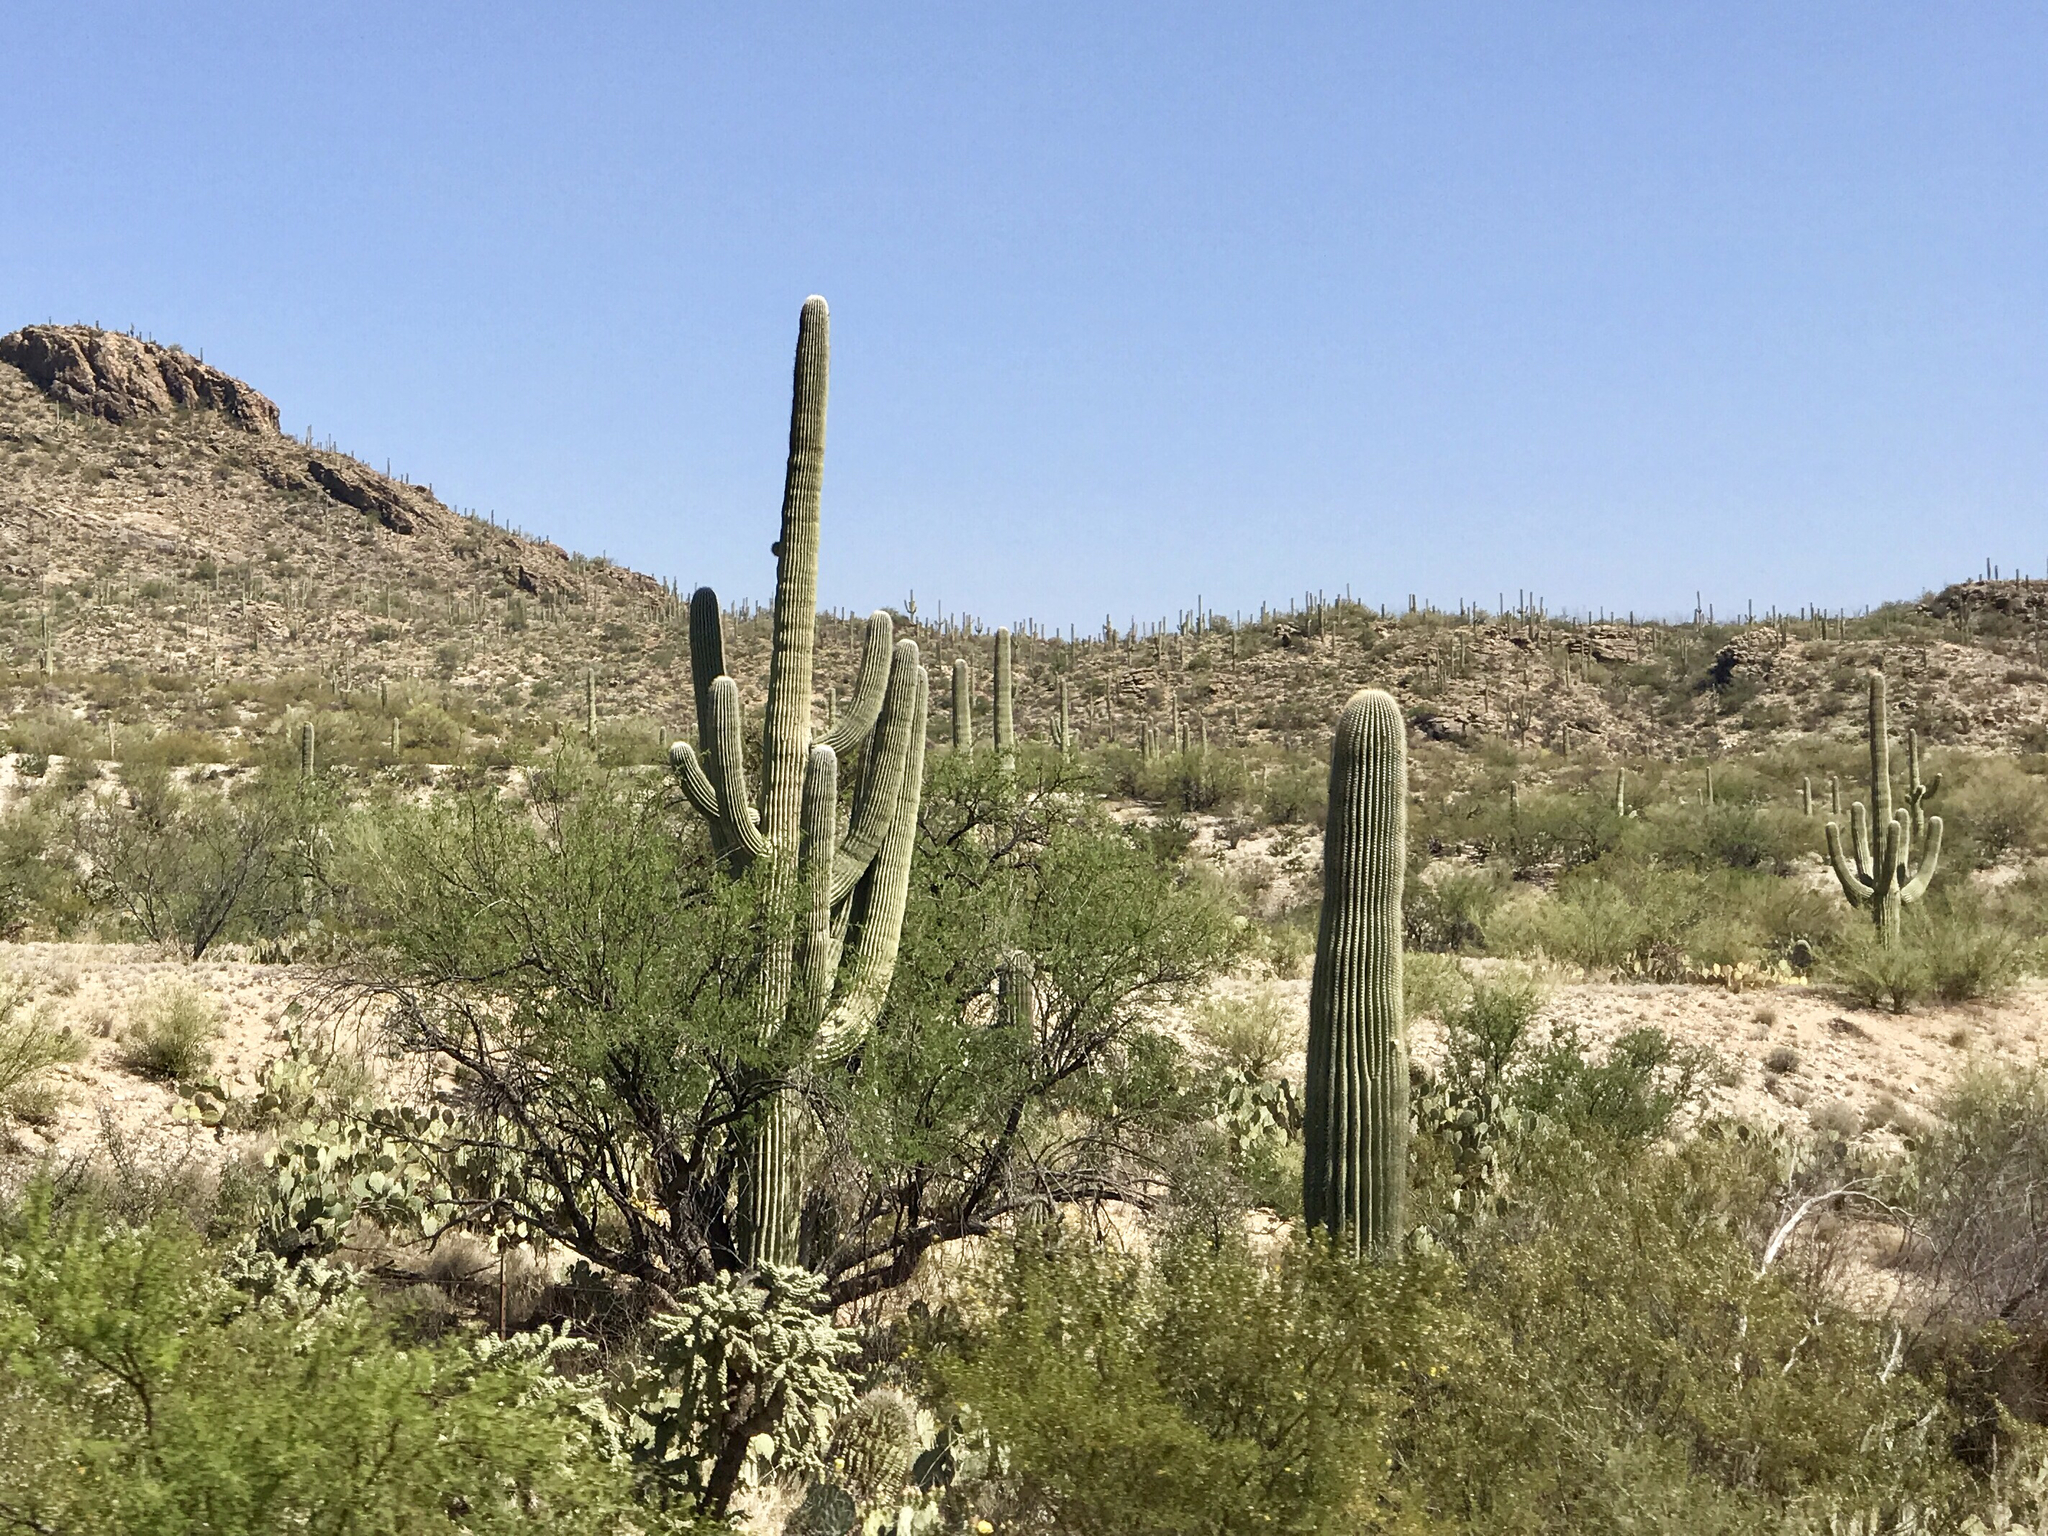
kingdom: Plantae
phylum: Tracheophyta
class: Magnoliopsida
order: Caryophyllales
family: Cactaceae
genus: Carnegiea
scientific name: Carnegiea gigantea
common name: Saguaro
